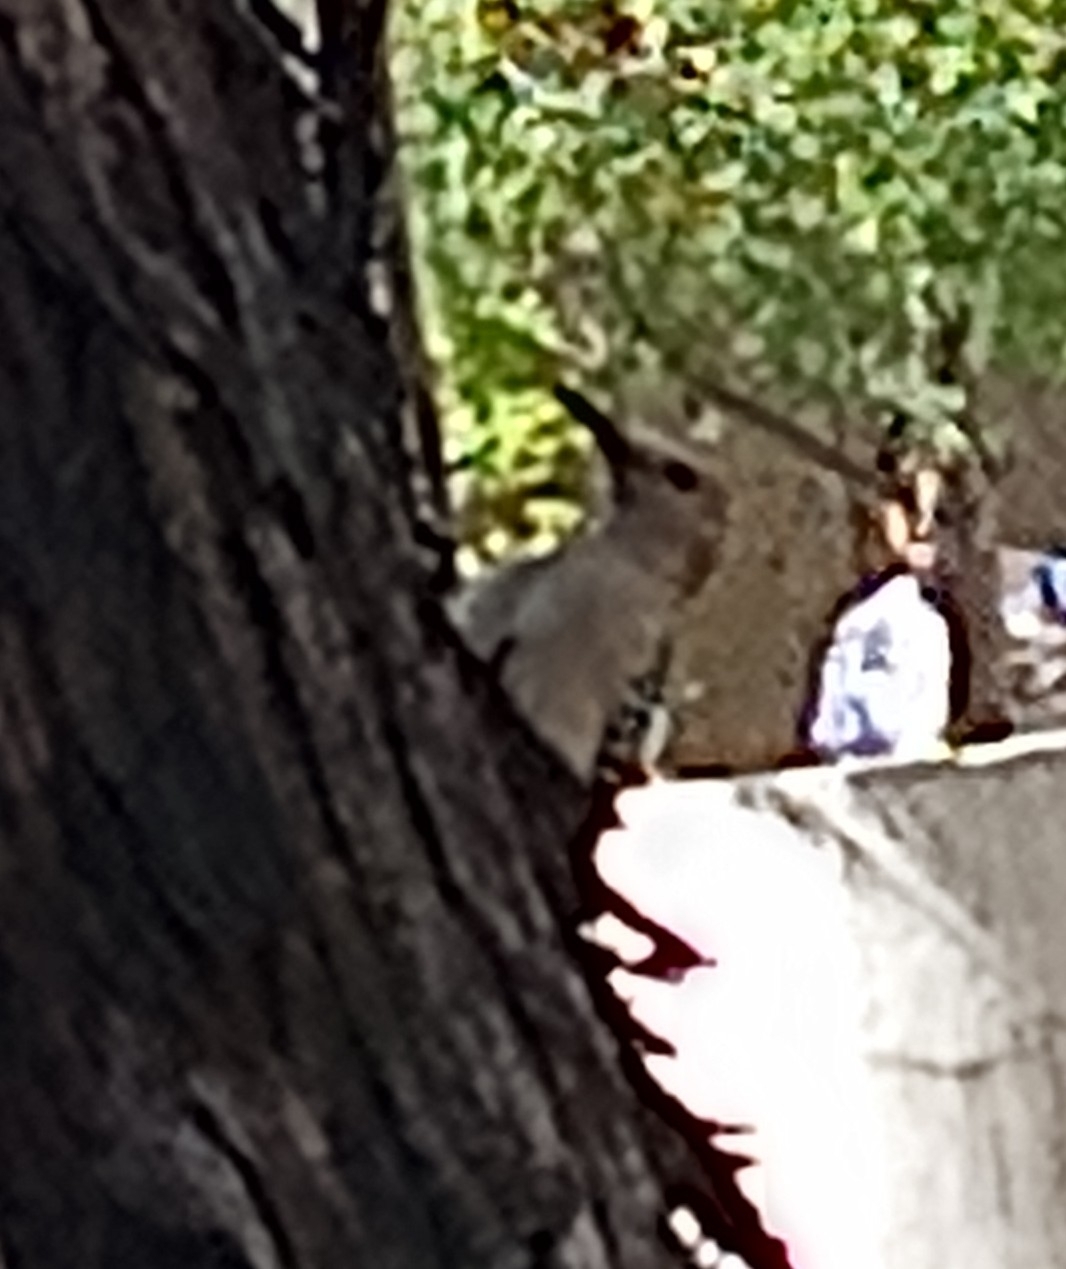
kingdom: Animalia
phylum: Chordata
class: Aves
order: Piciformes
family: Picidae
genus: Melanerpes
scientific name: Melanerpes uropygialis
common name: Gila woodpecker
